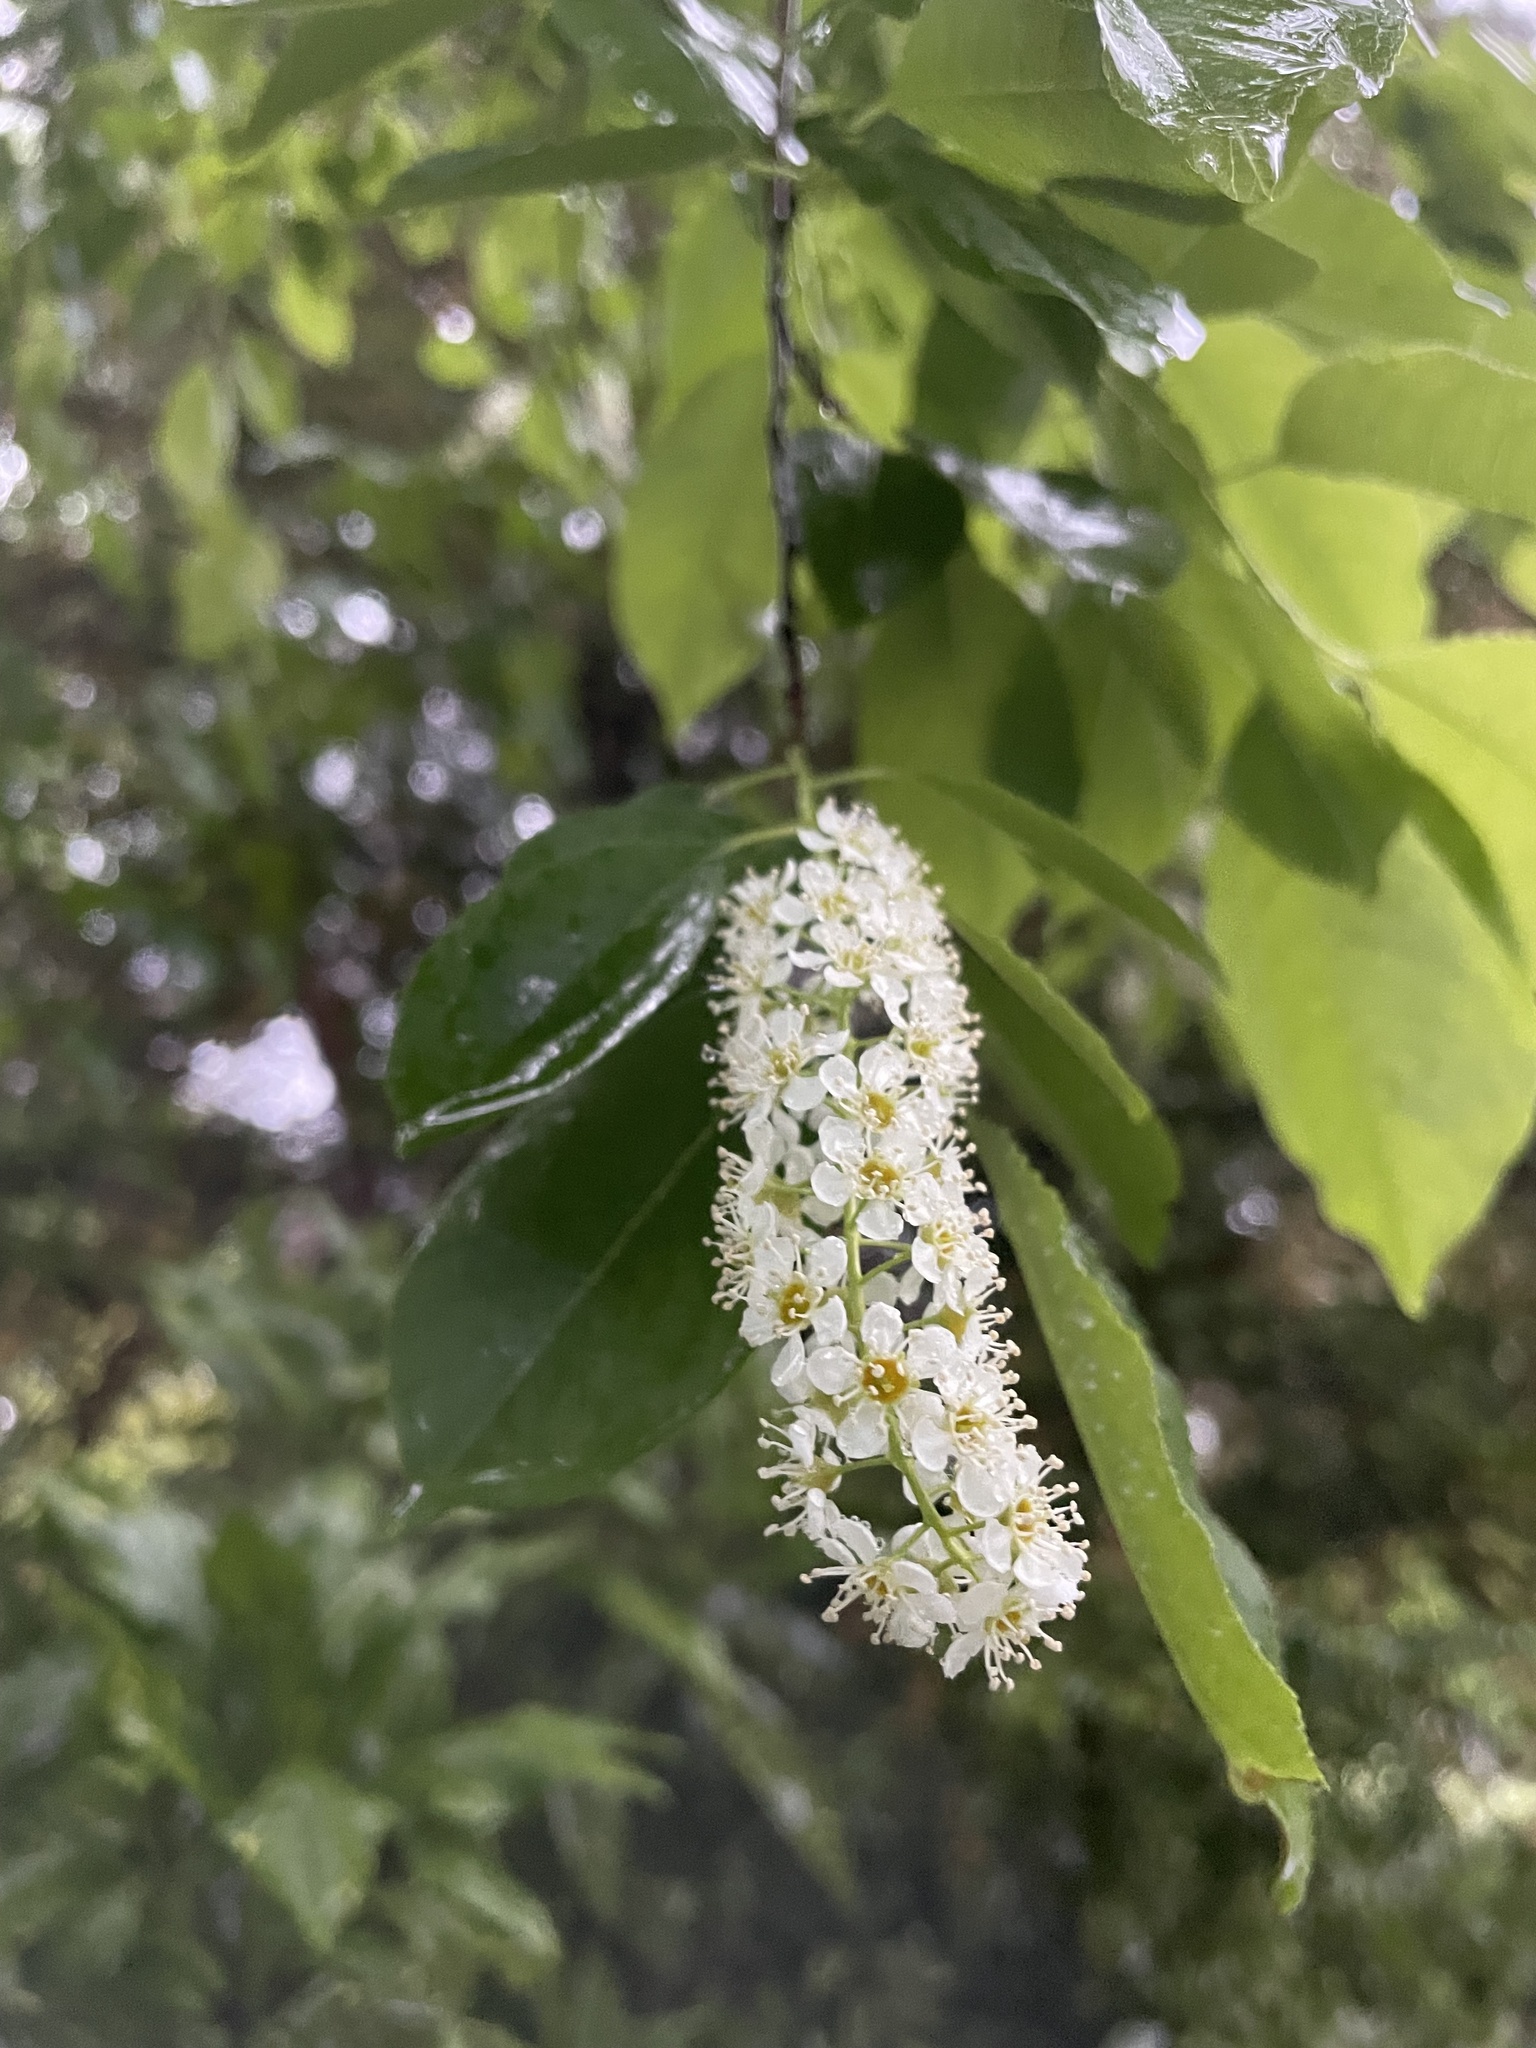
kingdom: Plantae
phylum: Tracheophyta
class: Magnoliopsida
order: Rosales
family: Rosaceae
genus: Prunus
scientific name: Prunus serotina
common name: Black cherry
